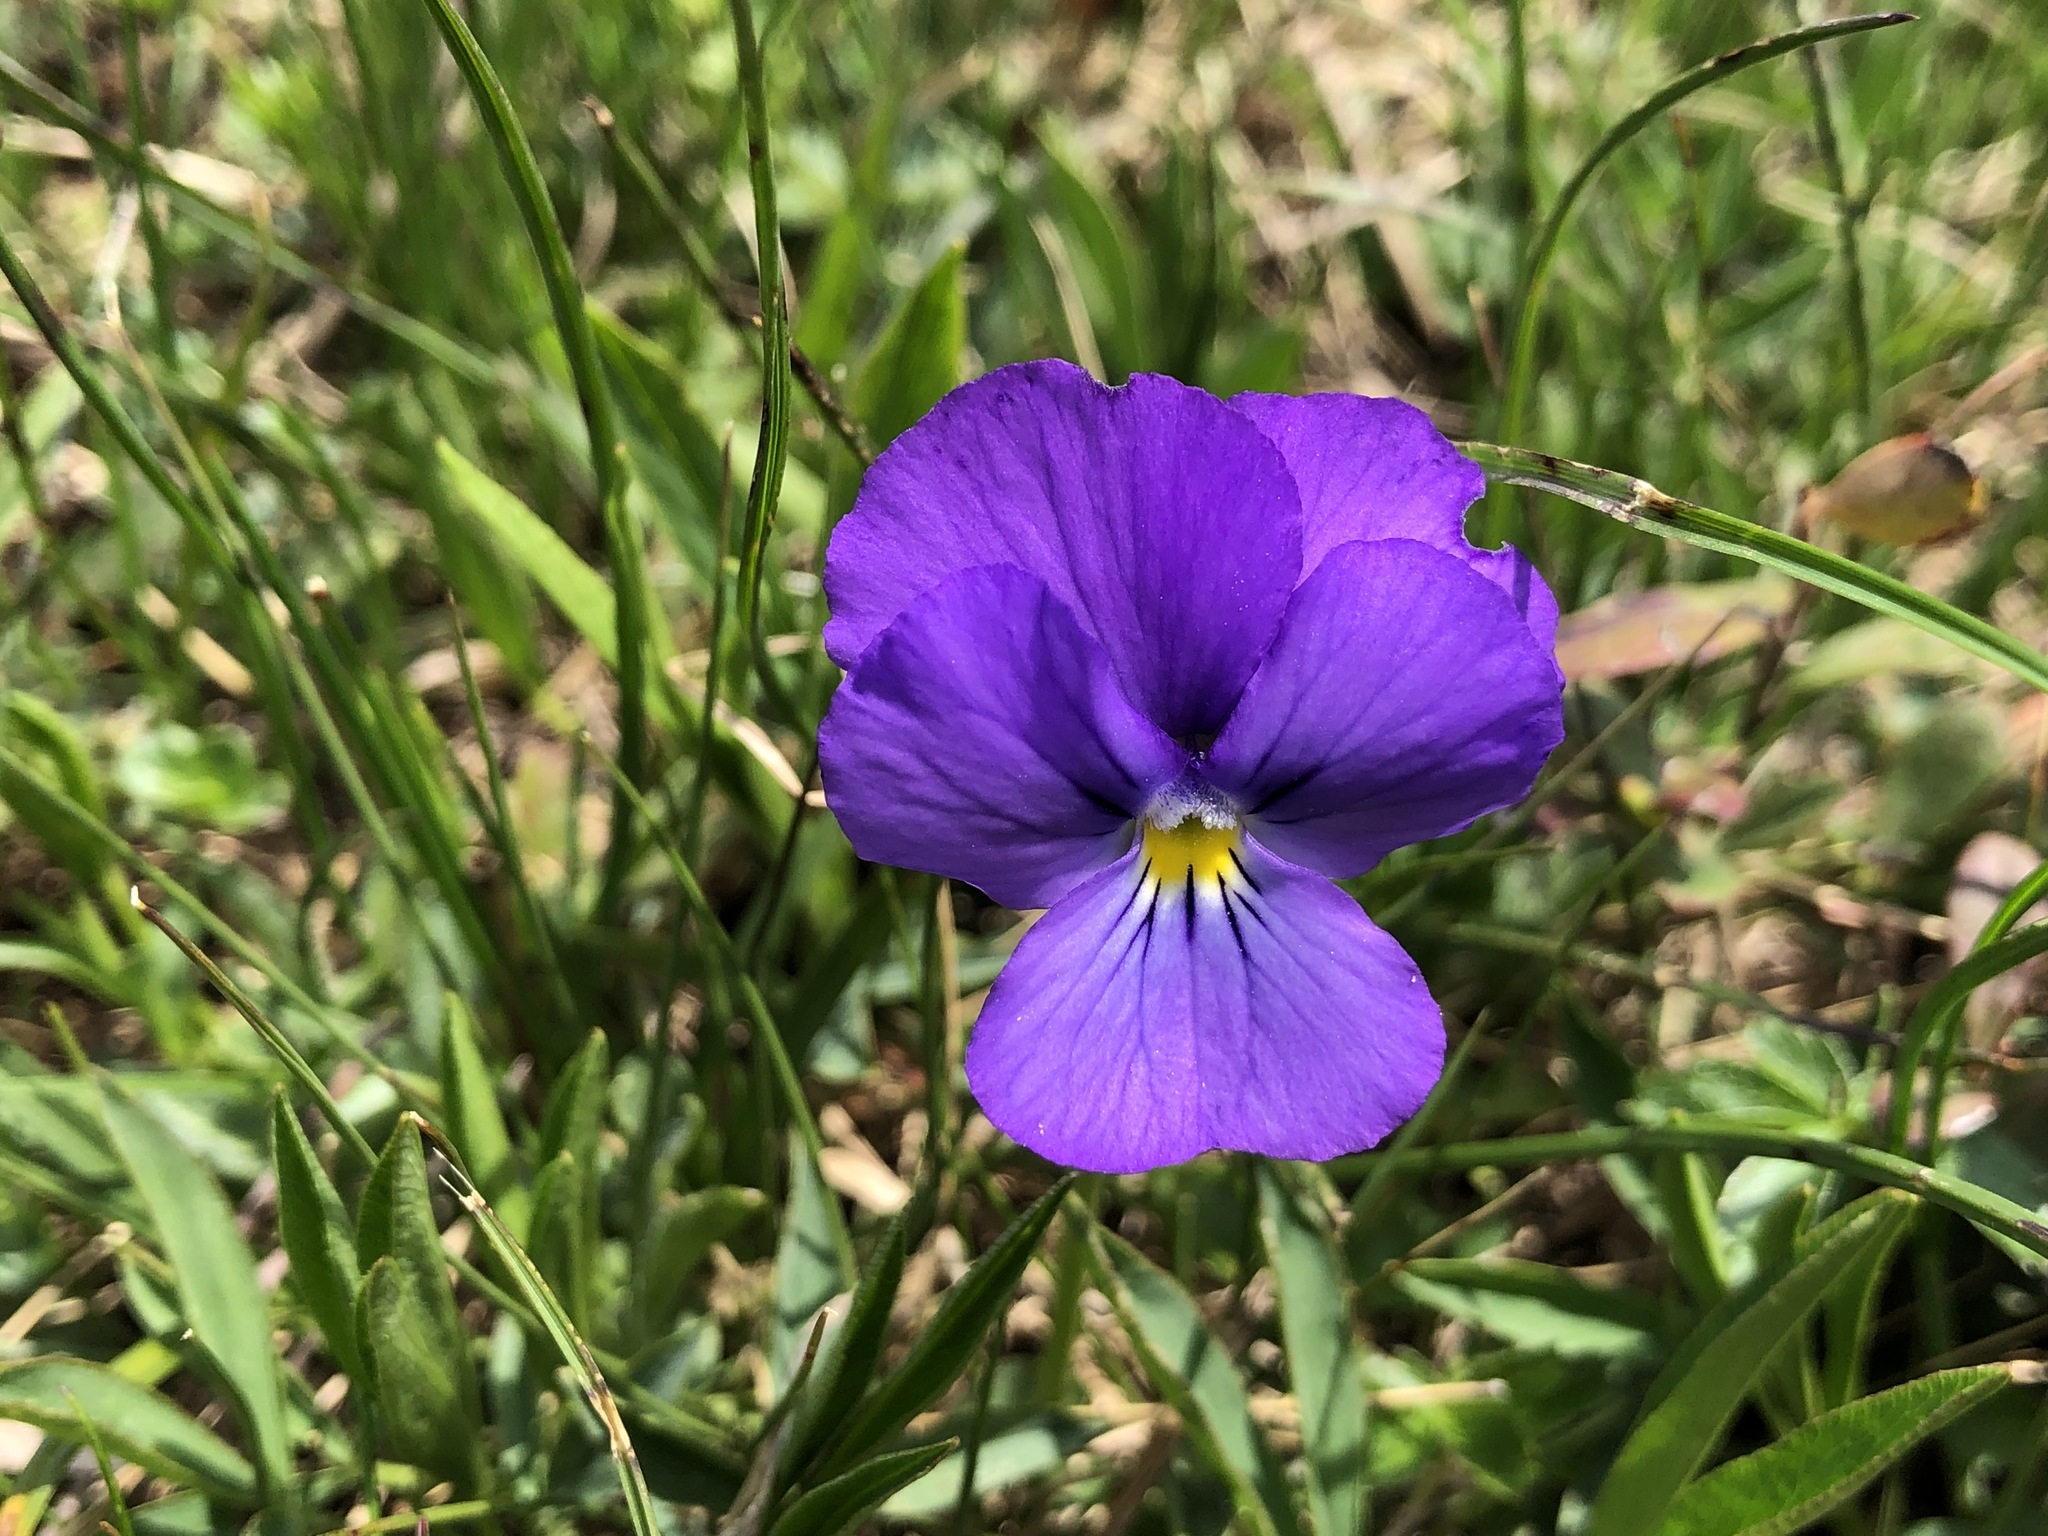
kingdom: Plantae
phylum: Tracheophyta
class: Magnoliopsida
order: Malpighiales
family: Violaceae
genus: Viola
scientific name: Viola calcarata
